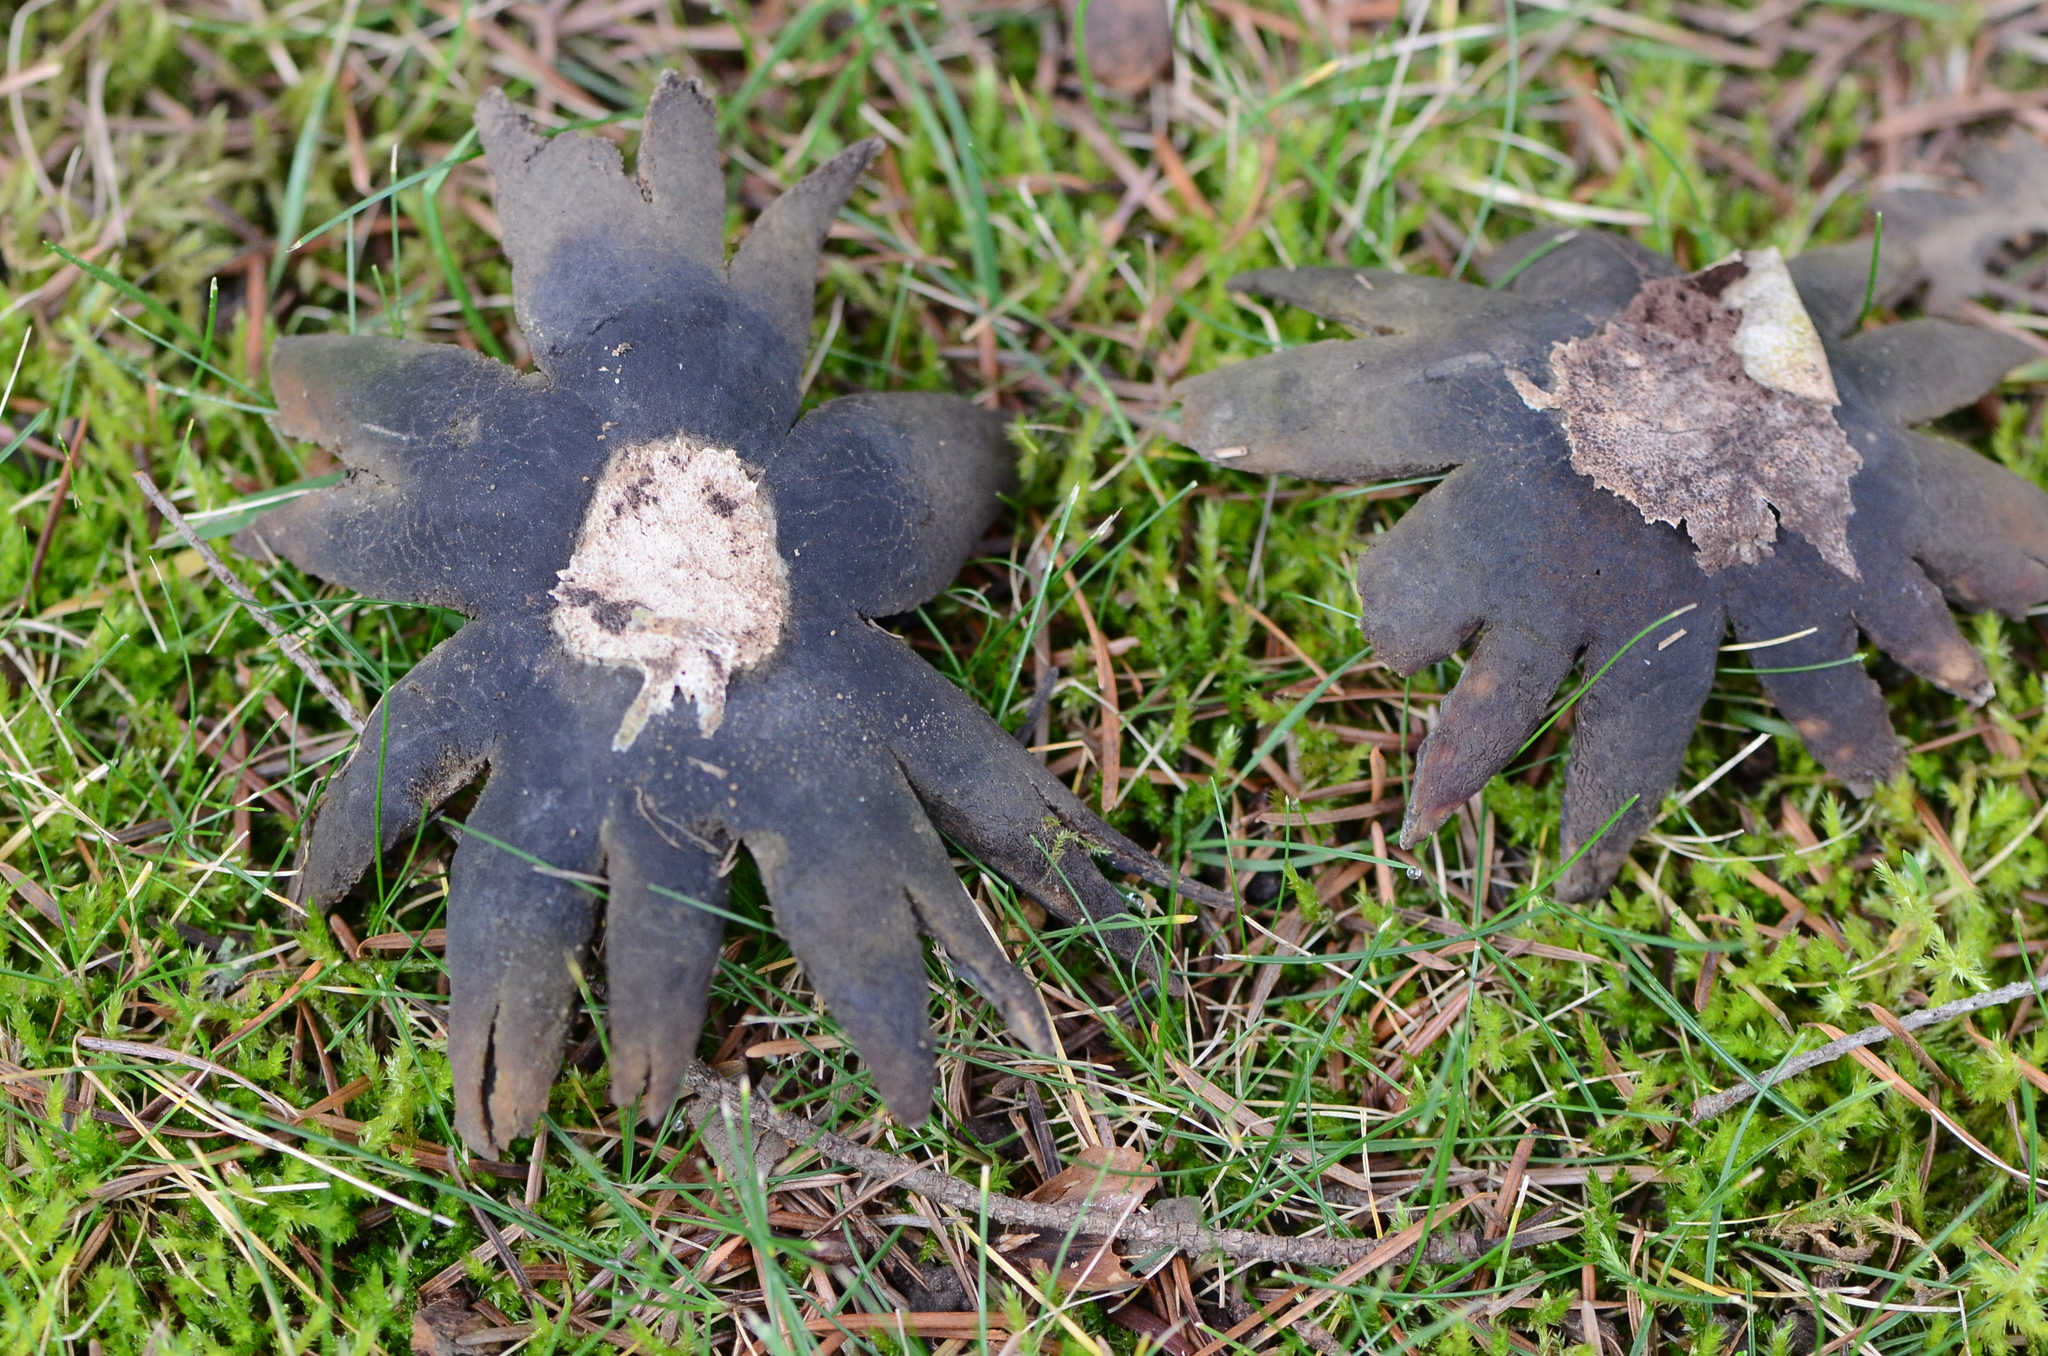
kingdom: Fungi
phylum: Basidiomycota
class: Agaricomycetes
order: Boletales
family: Diplocystidiaceae
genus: Astraeus
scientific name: Astraeus hygrometricus
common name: Barometer earthstar
